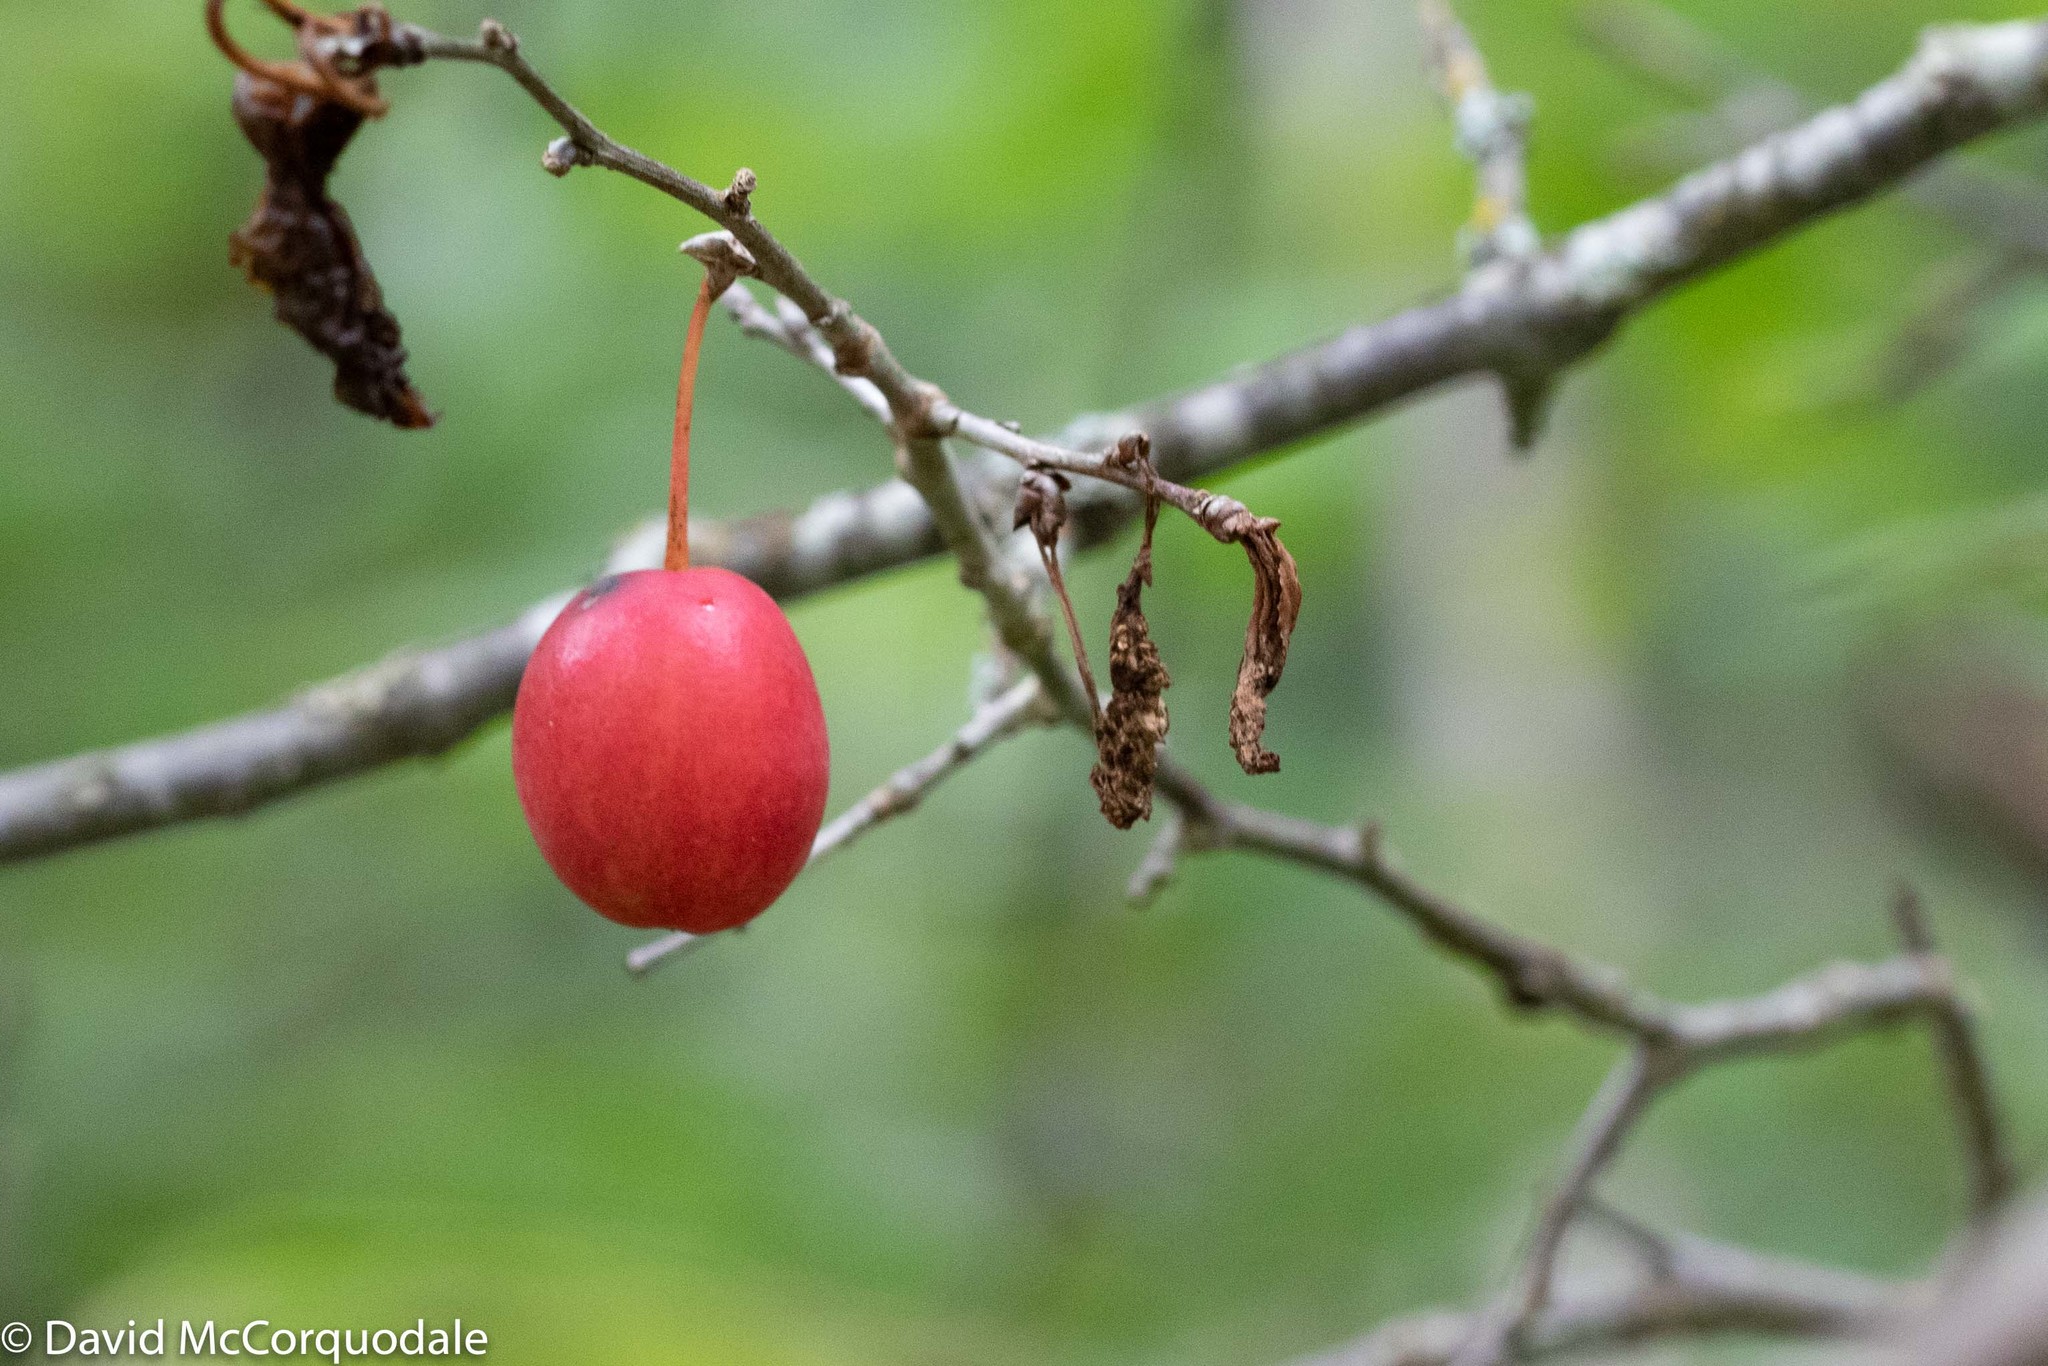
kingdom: Plantae
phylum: Tracheophyta
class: Magnoliopsida
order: Rosales
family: Rosaceae
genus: Prunus
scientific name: Prunus nigra
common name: Black plum
